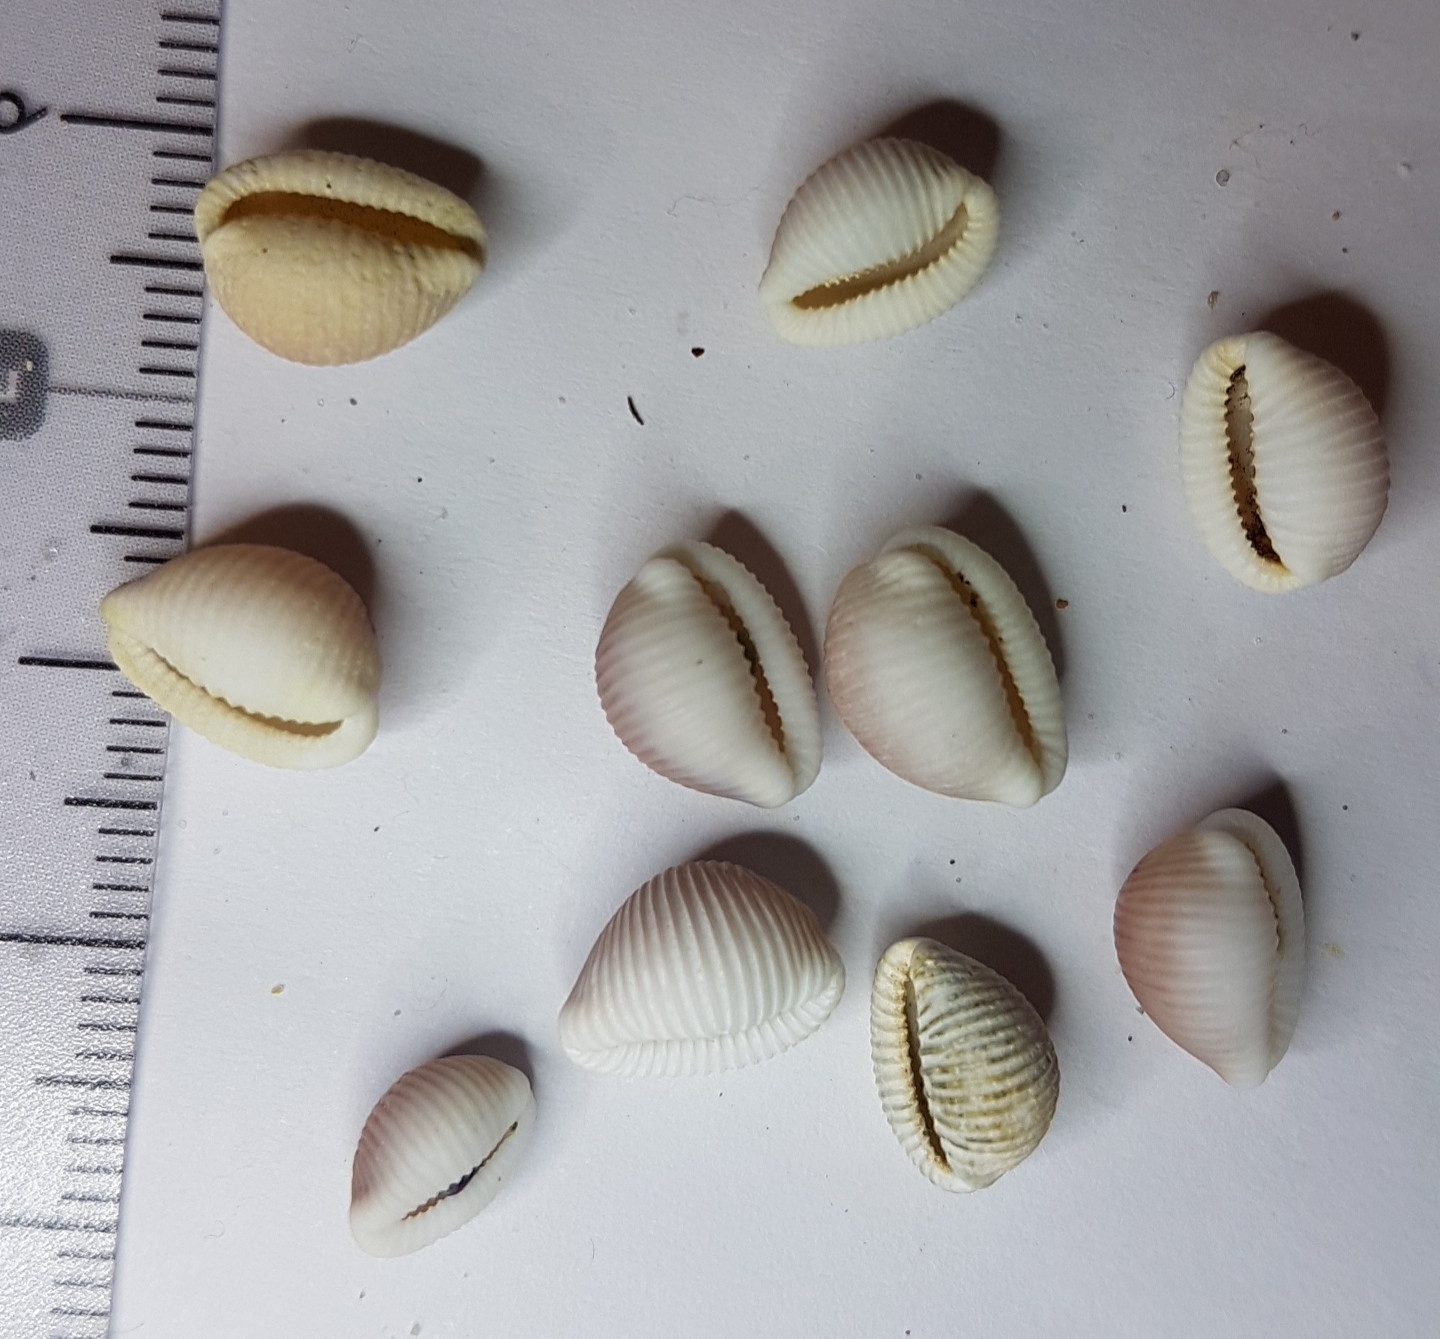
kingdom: Animalia
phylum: Mollusca
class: Gastropoda
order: Littorinimorpha
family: Triviidae
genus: Trivia
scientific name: Trivia monacha
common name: Spotted cowrie
